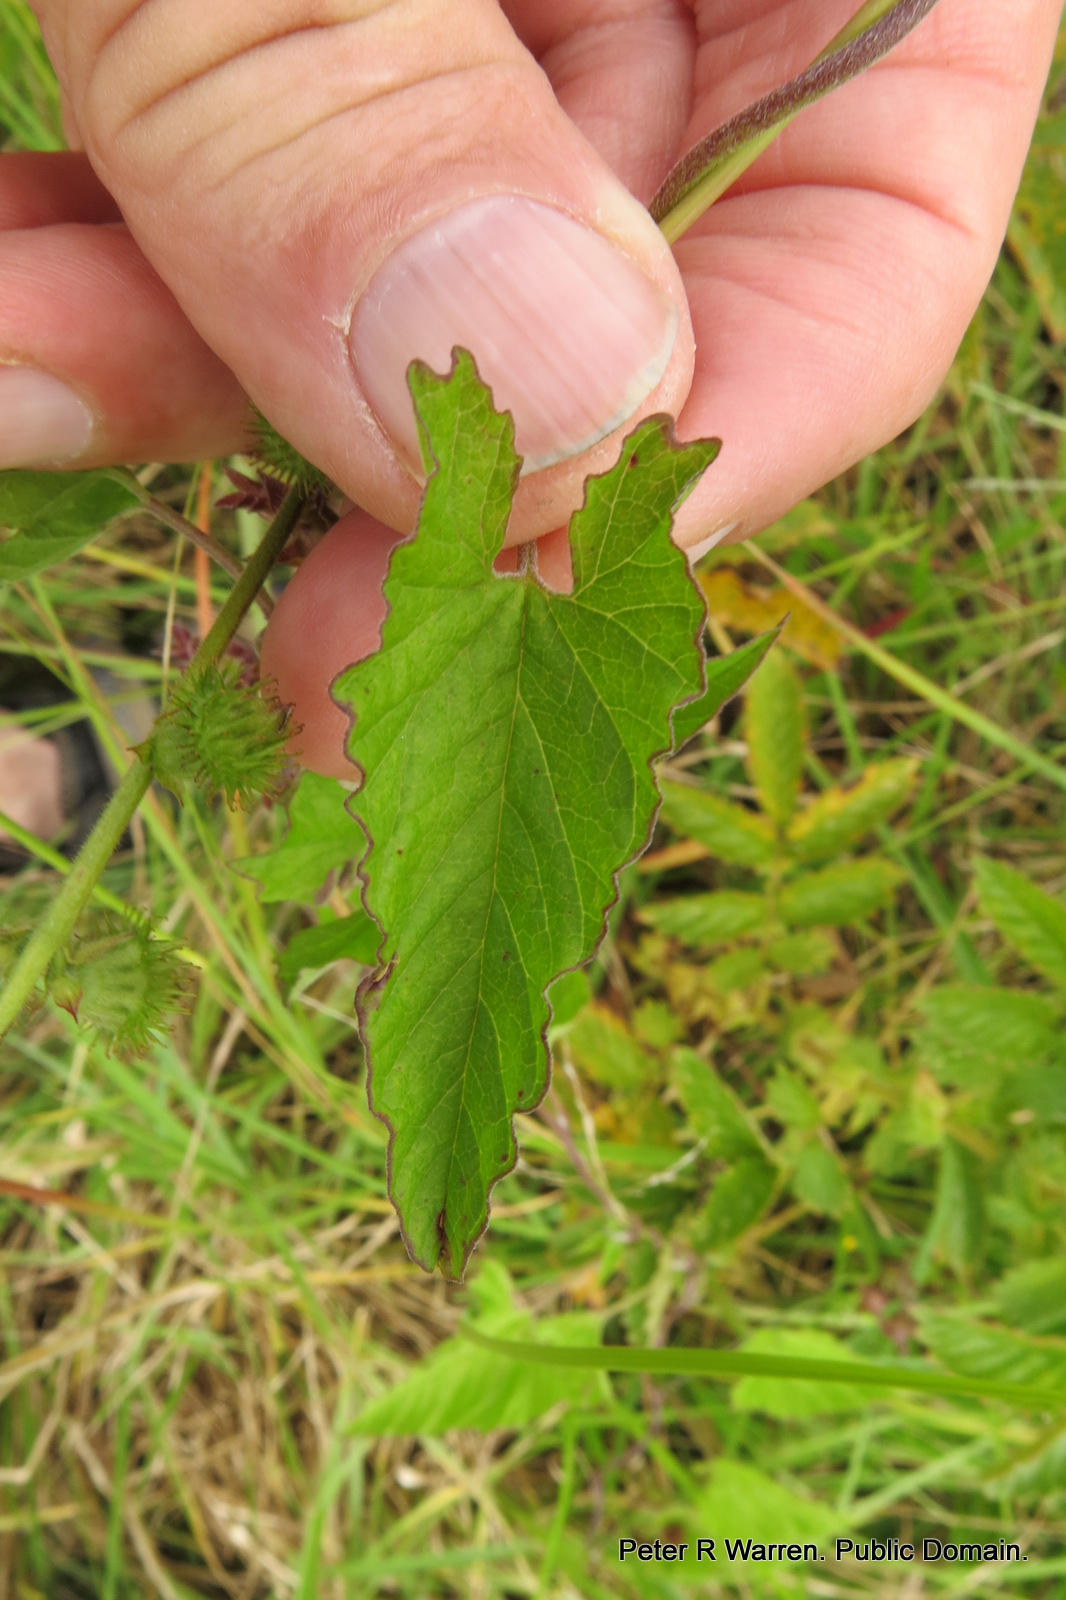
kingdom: Plantae
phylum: Tracheophyta
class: Magnoliopsida
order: Solanales
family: Convolvulaceae
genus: Convolvulus
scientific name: Convolvulus farinosus
